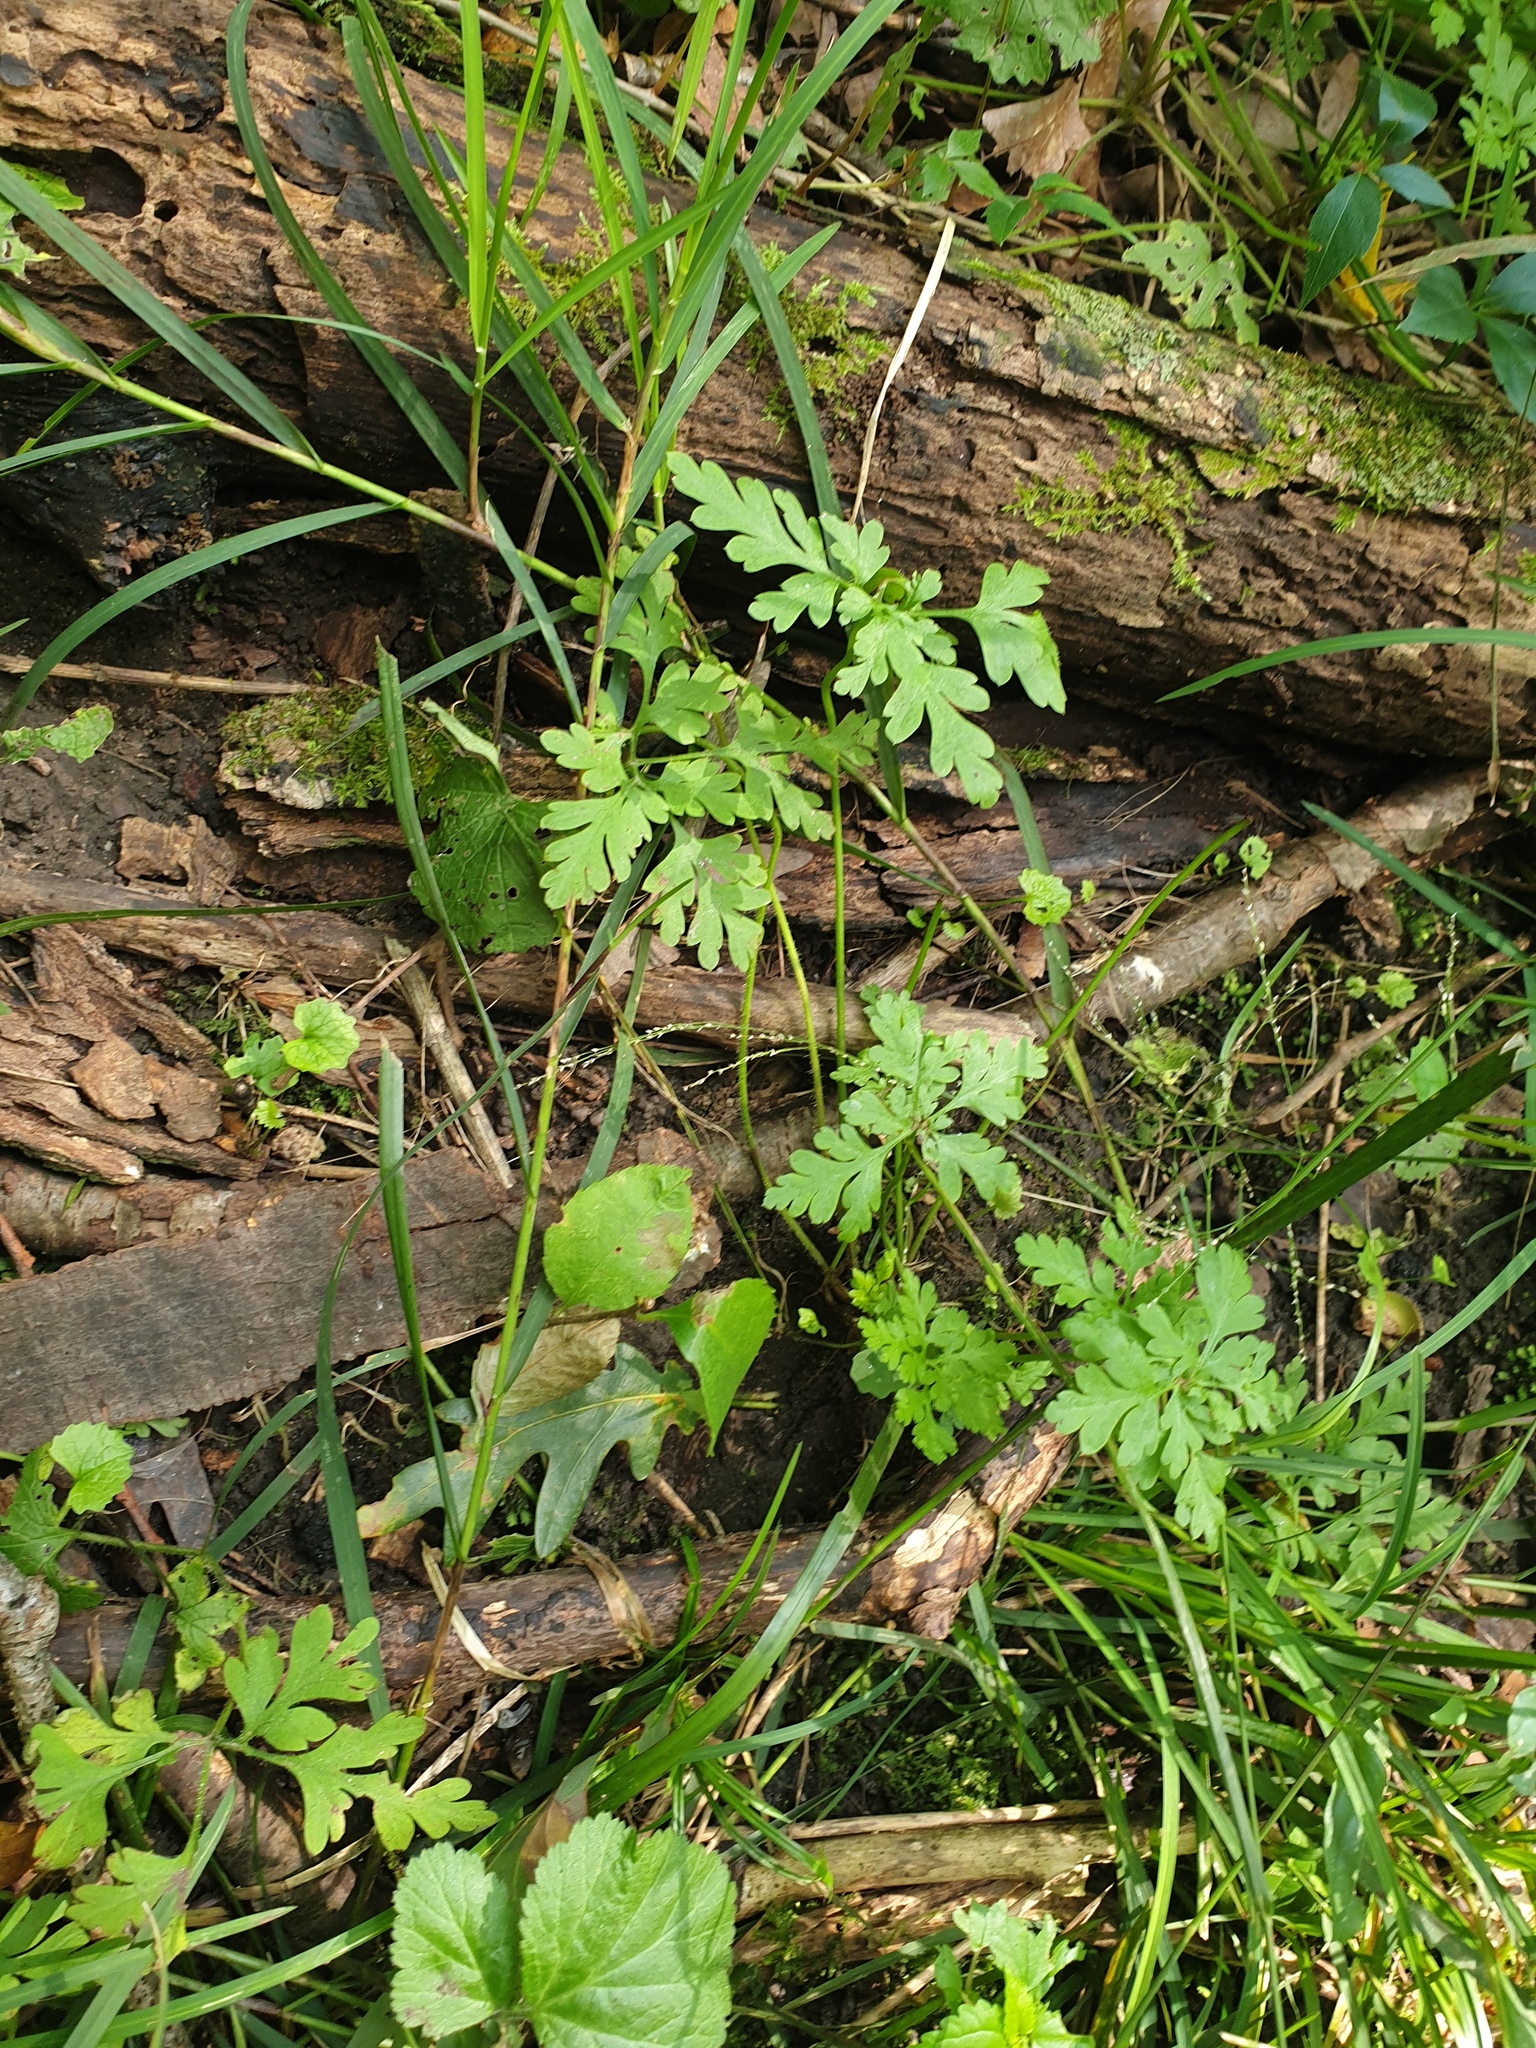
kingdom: Plantae
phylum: Tracheophyta
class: Magnoliopsida
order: Geraniales
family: Geraniaceae
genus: Geranium
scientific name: Geranium robertianum
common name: Herb-robert
